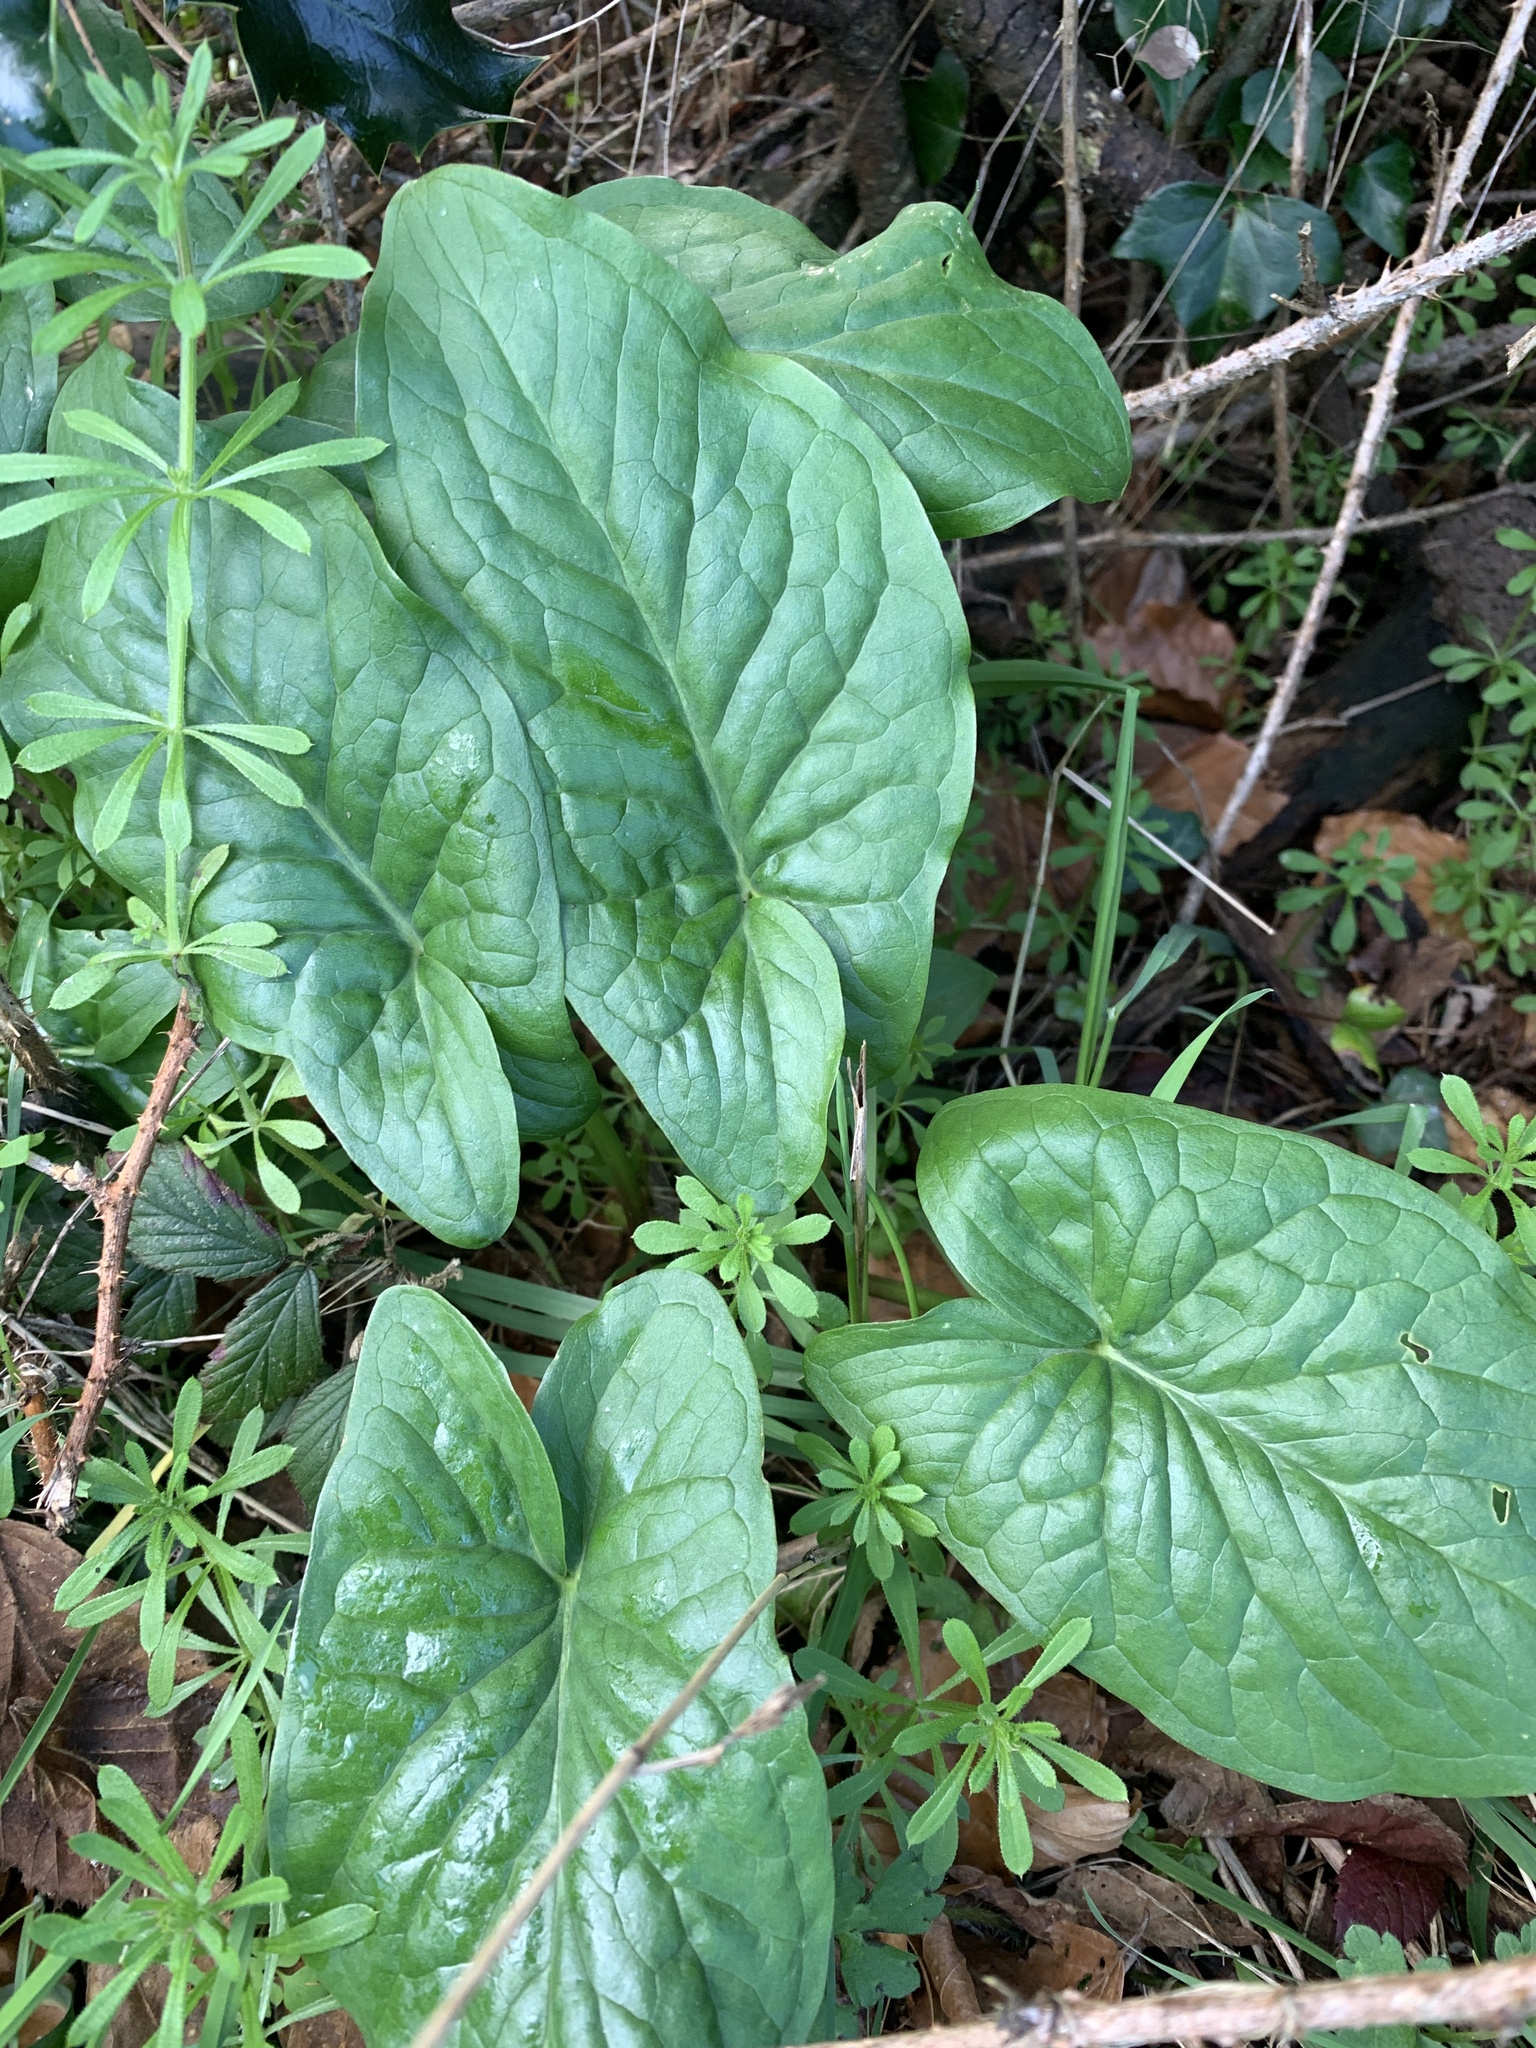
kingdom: Plantae
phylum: Tracheophyta
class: Liliopsida
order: Alismatales
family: Araceae
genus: Arum
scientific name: Arum maculatum
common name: Lords-and-ladies
